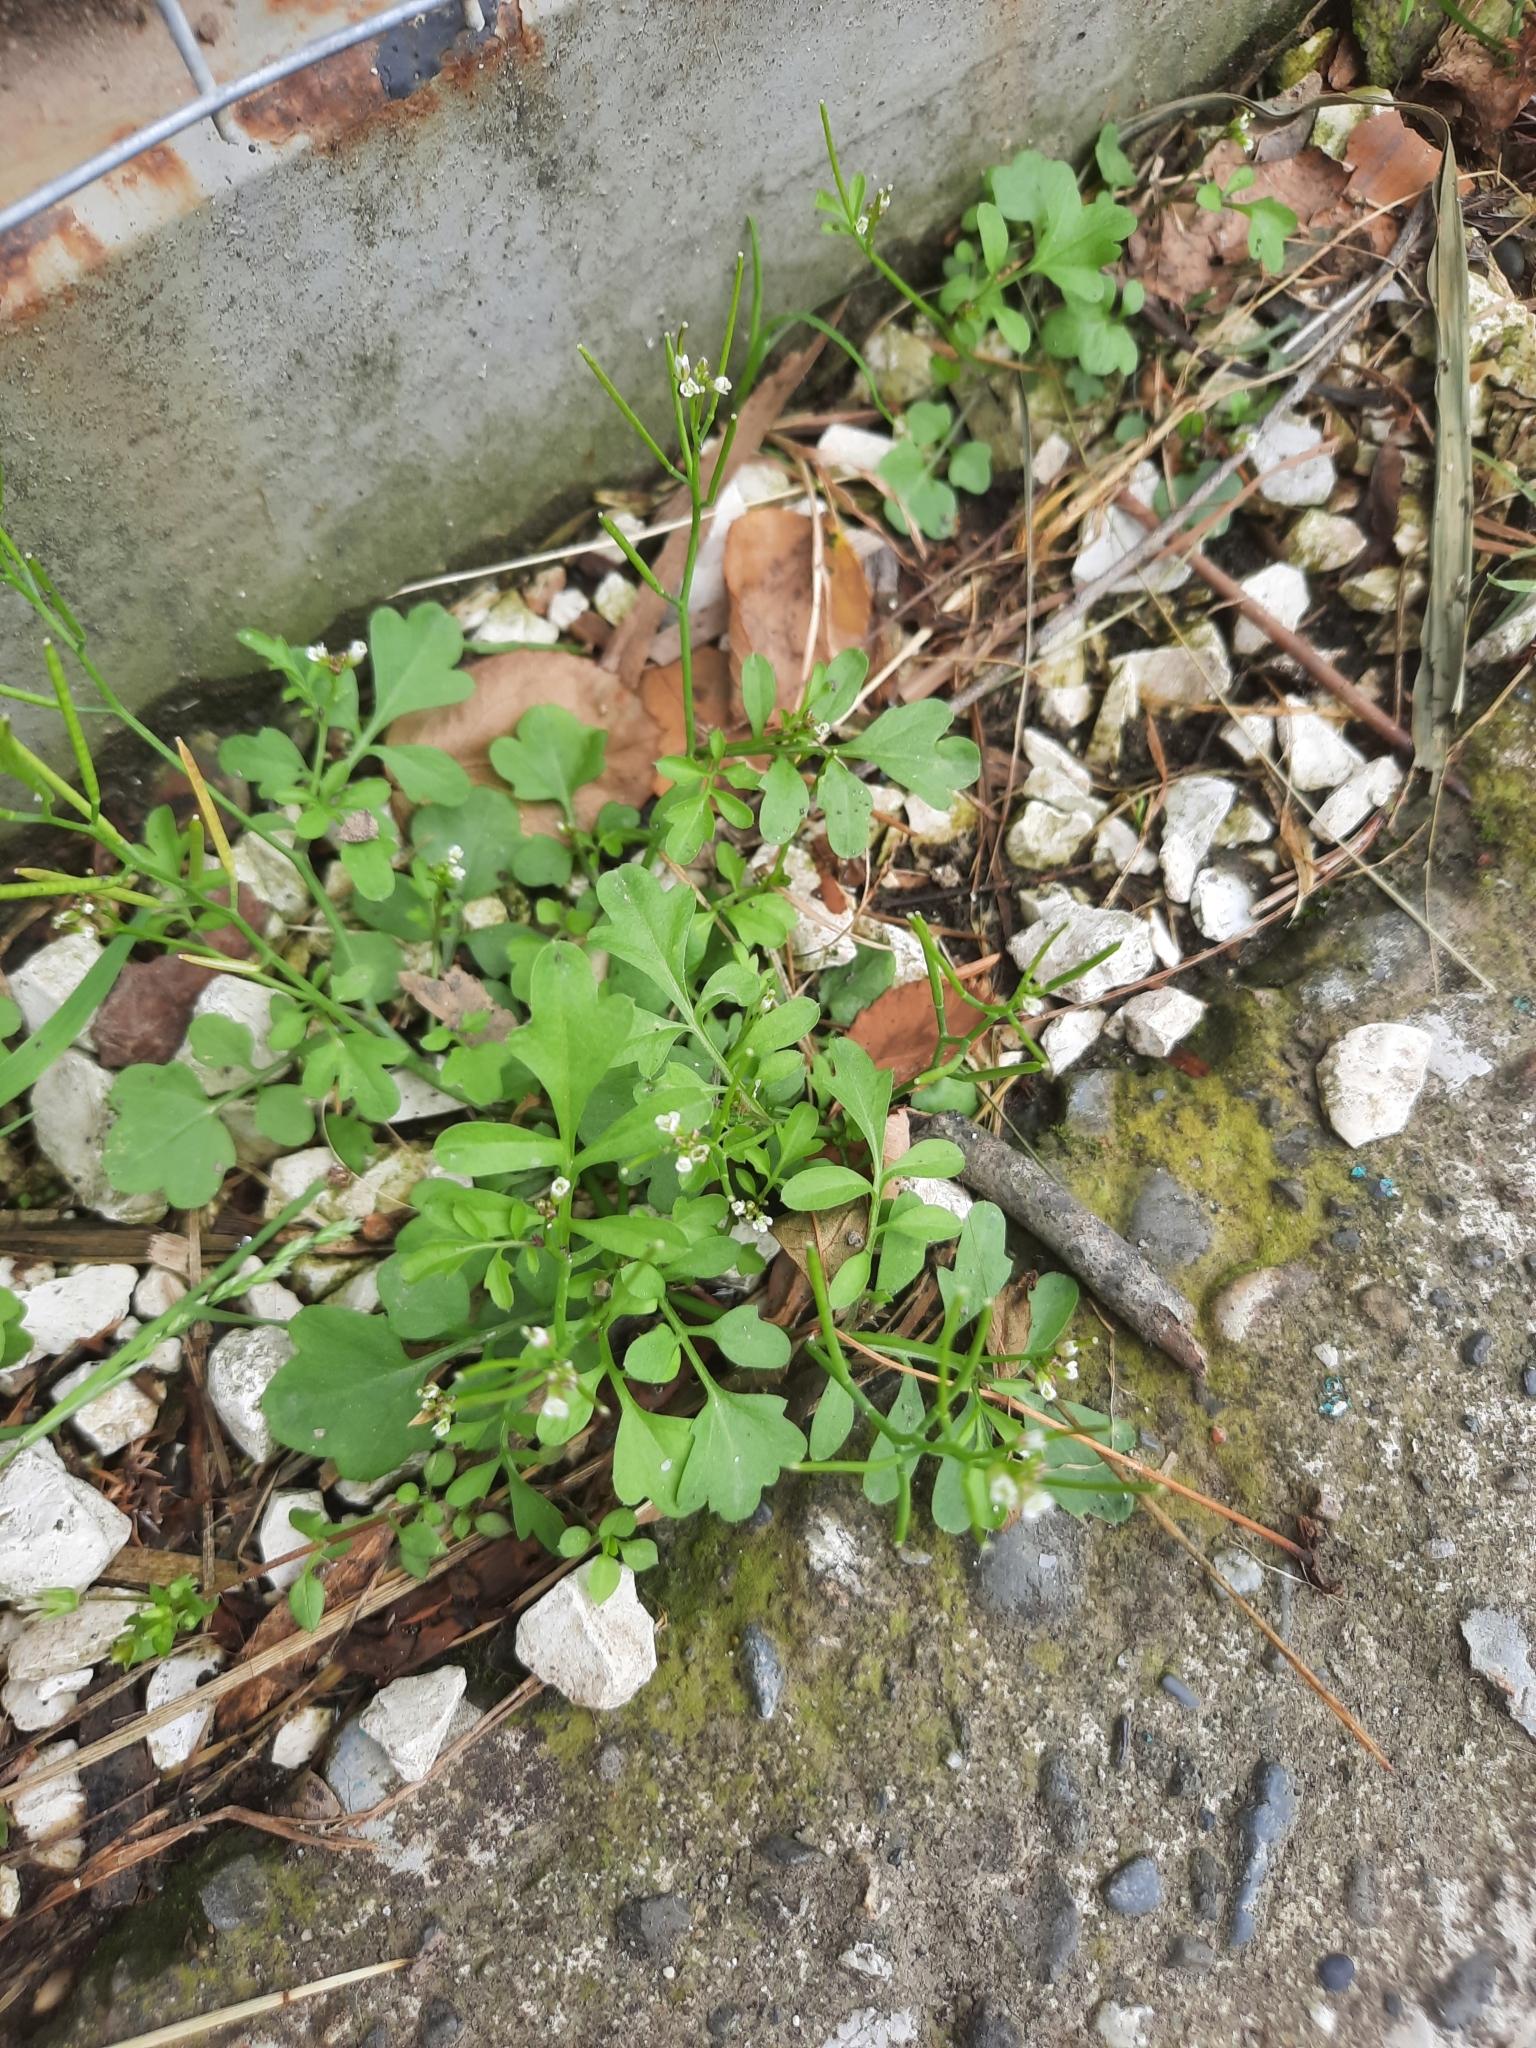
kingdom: Plantae
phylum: Tracheophyta
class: Magnoliopsida
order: Brassicales
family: Brassicaceae
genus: Cardamine
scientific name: Cardamine occulta
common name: Asian wavy bittercress
